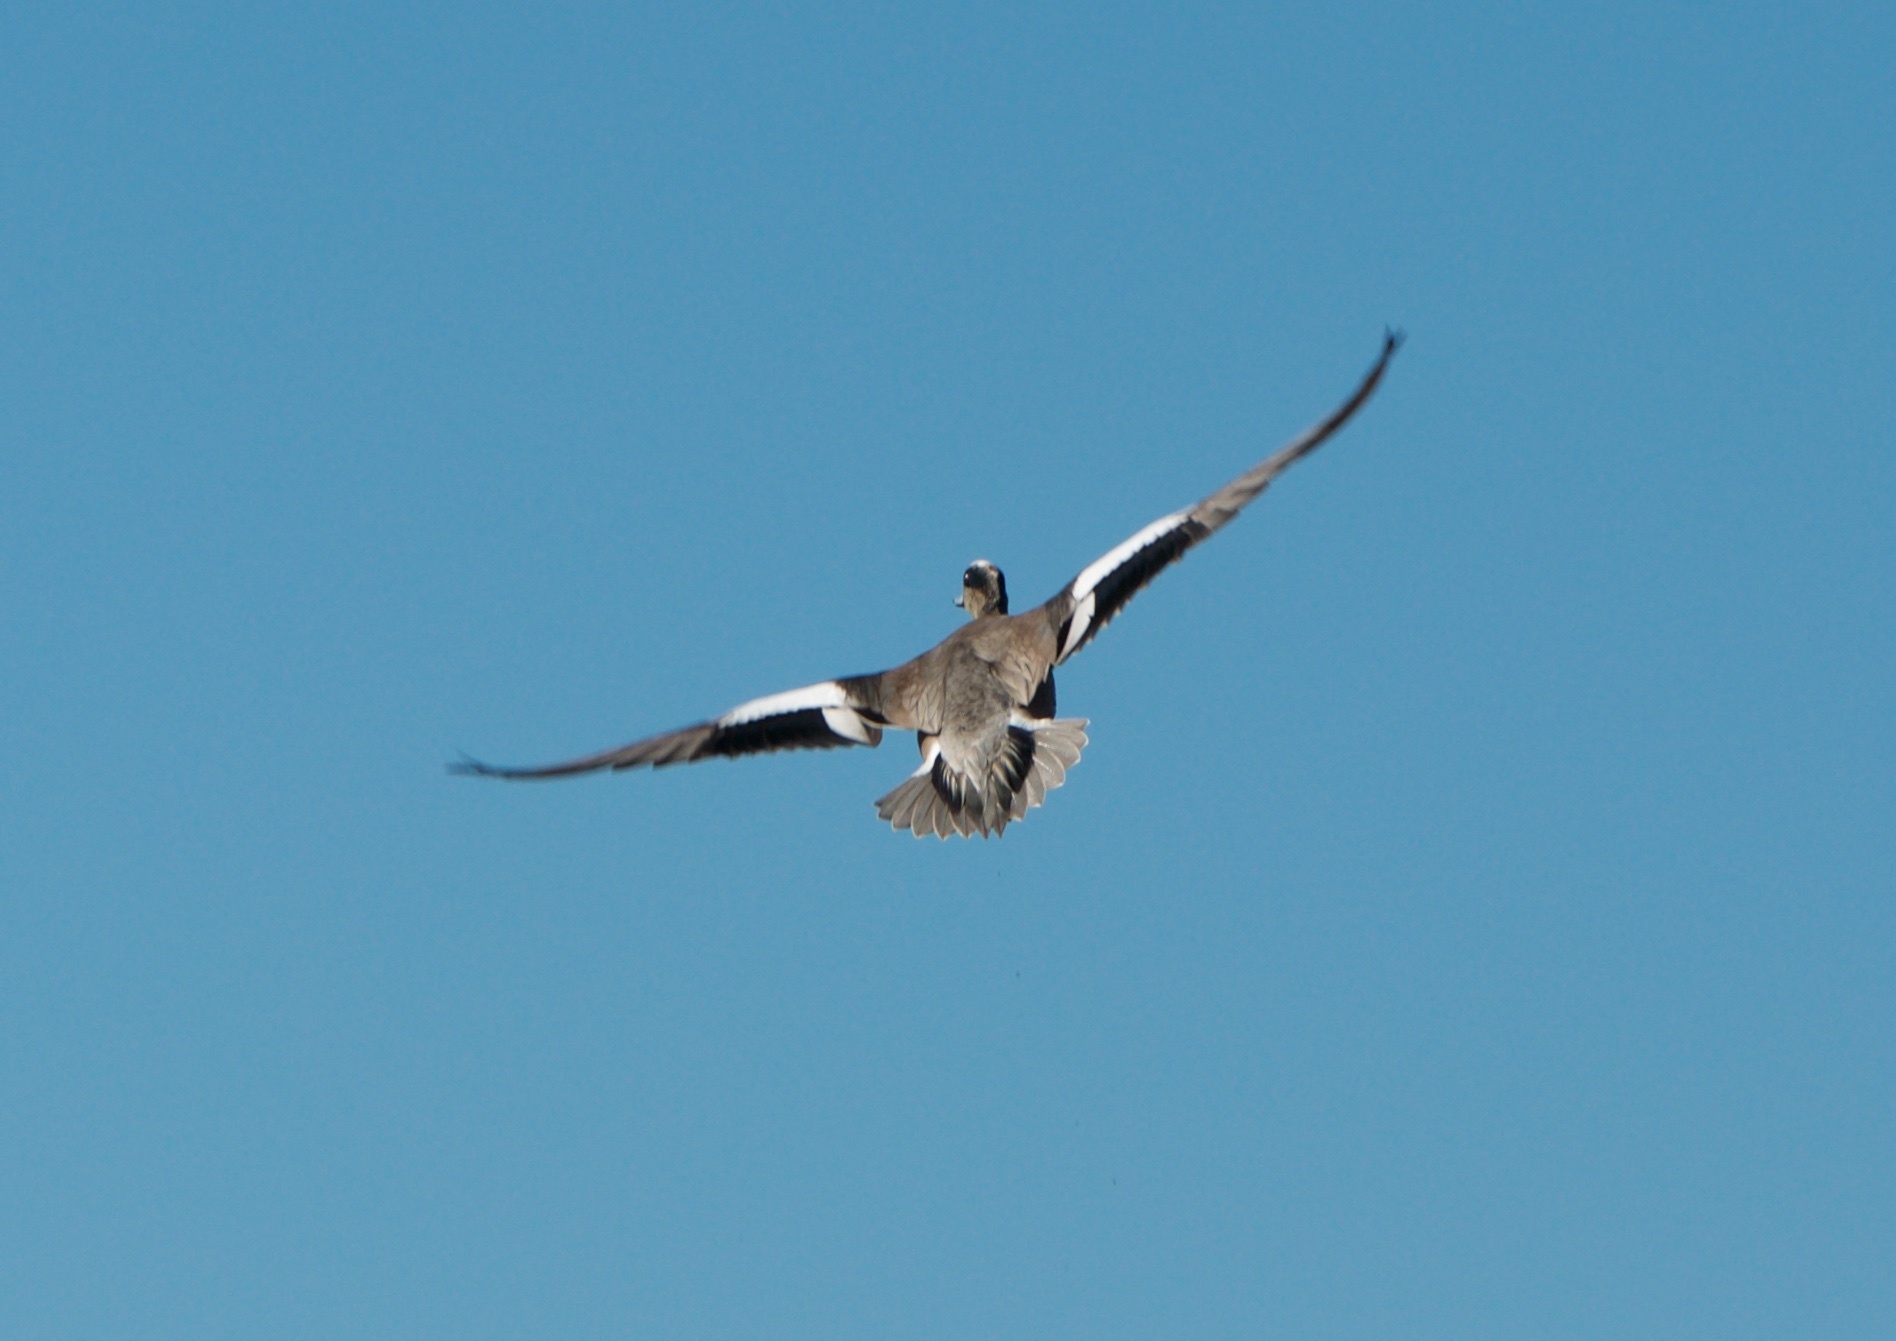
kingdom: Animalia
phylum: Chordata
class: Aves
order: Anseriformes
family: Anatidae
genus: Mareca
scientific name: Mareca americana
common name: American wigeon
